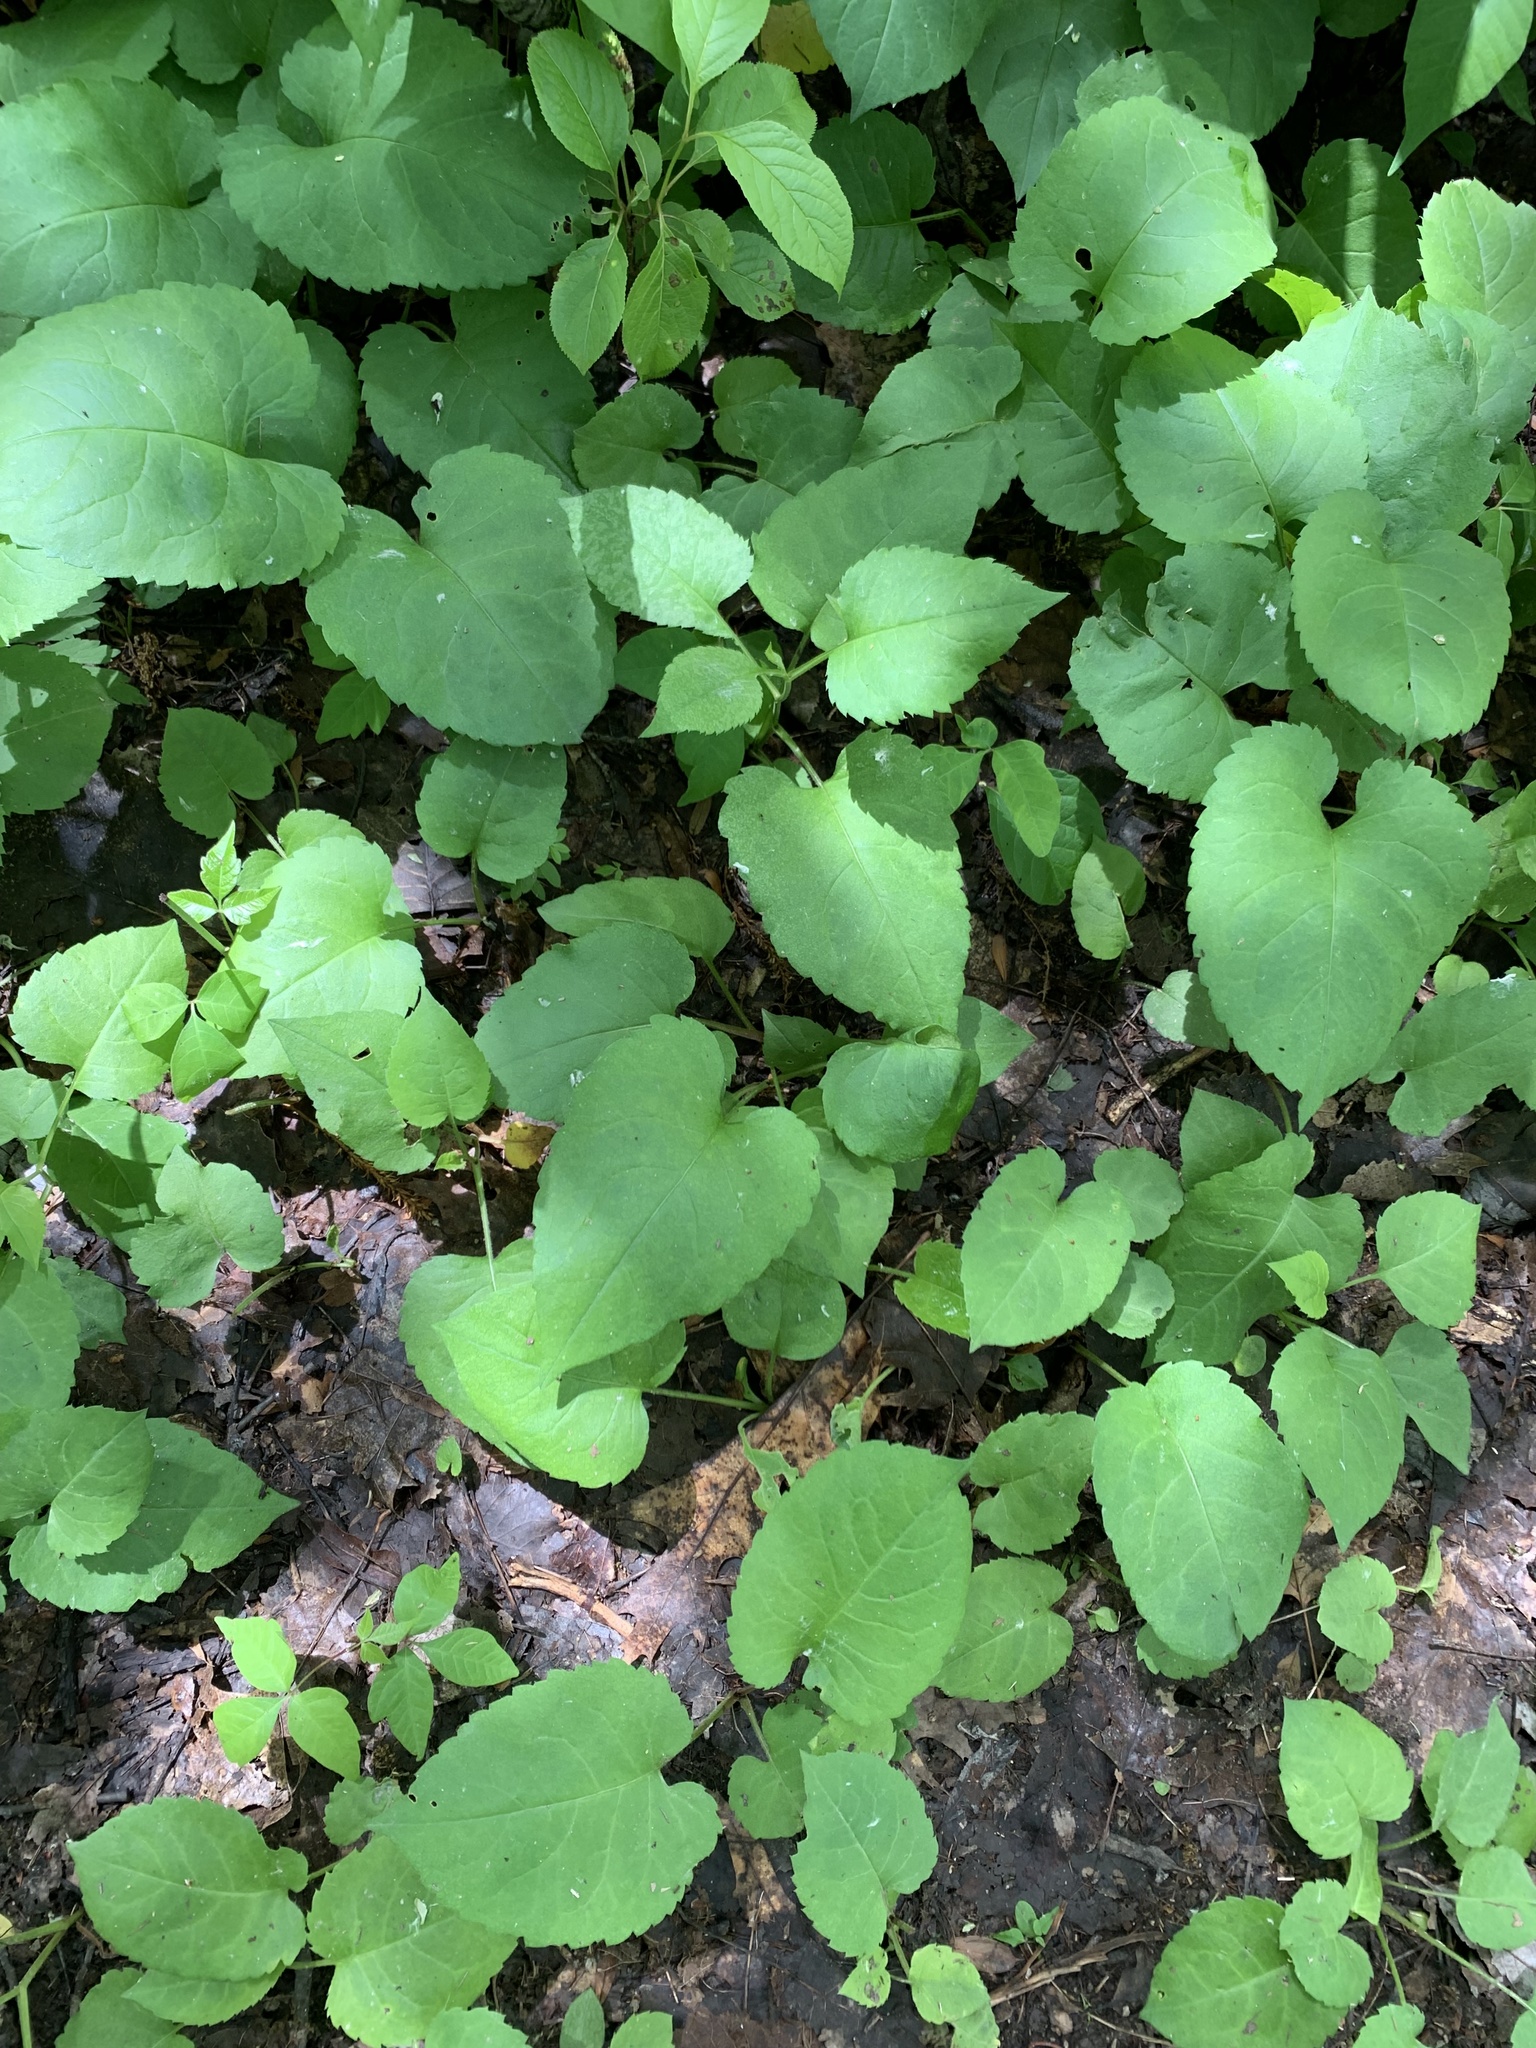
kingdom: Plantae
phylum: Tracheophyta
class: Magnoliopsida
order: Asterales
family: Asteraceae
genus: Eurybia
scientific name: Eurybia macrophylla
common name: Big-leaved aster
